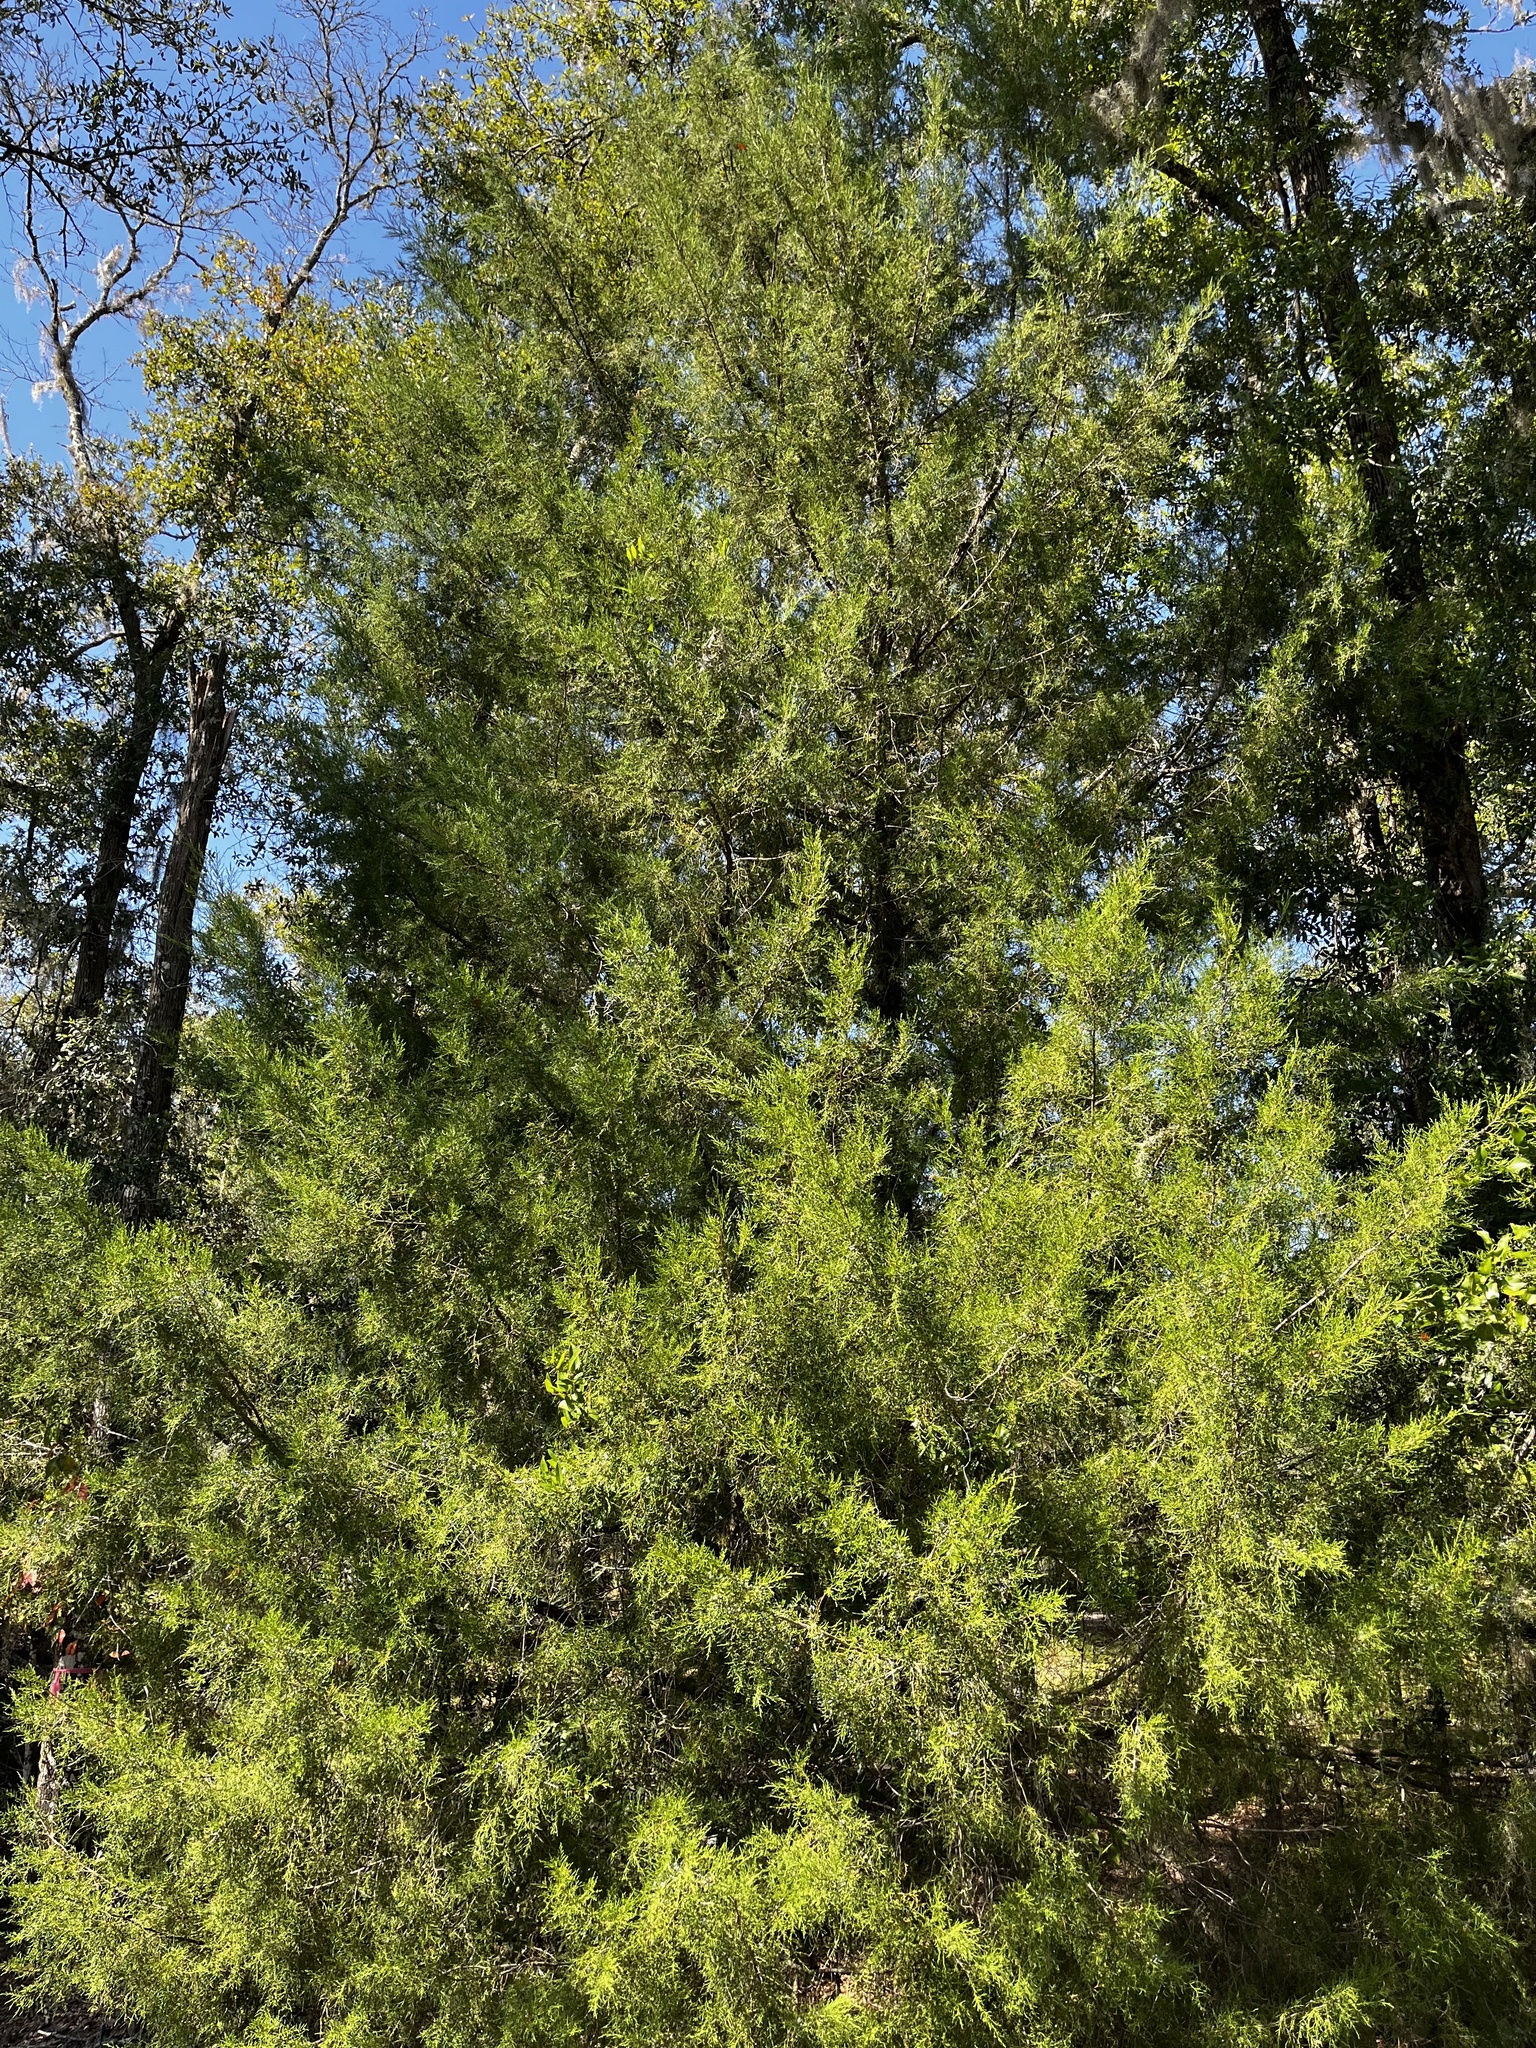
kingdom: Plantae
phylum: Tracheophyta
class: Pinopsida
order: Pinales
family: Cupressaceae
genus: Juniperus
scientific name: Juniperus virginiana
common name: Red juniper
